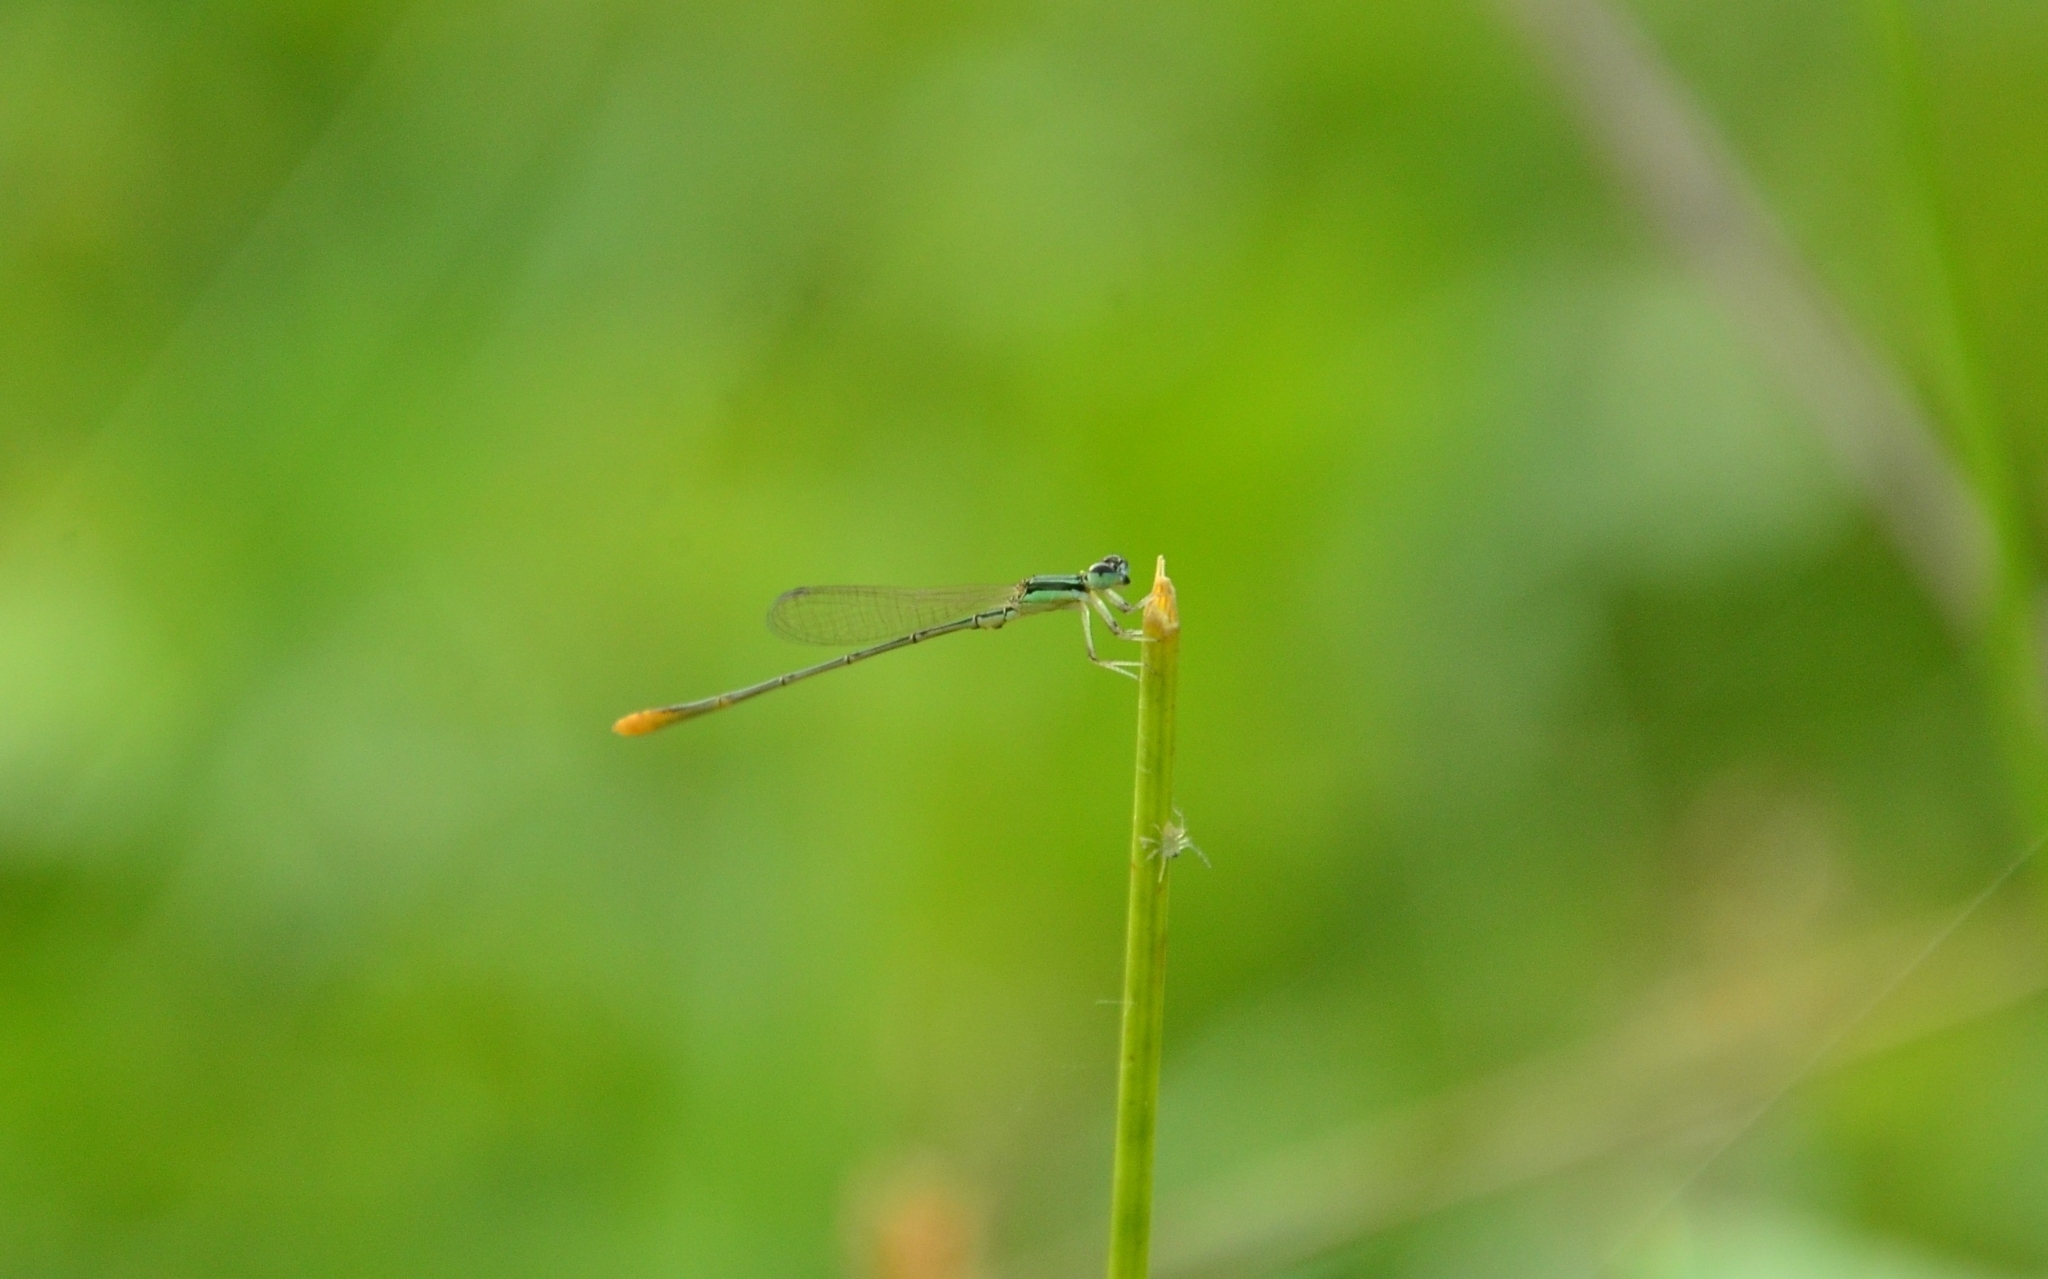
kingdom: Animalia
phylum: Arthropoda
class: Insecta
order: Odonata
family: Coenagrionidae
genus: Agriocnemis
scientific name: Agriocnemis pygmaea
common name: Pygmy wisp
